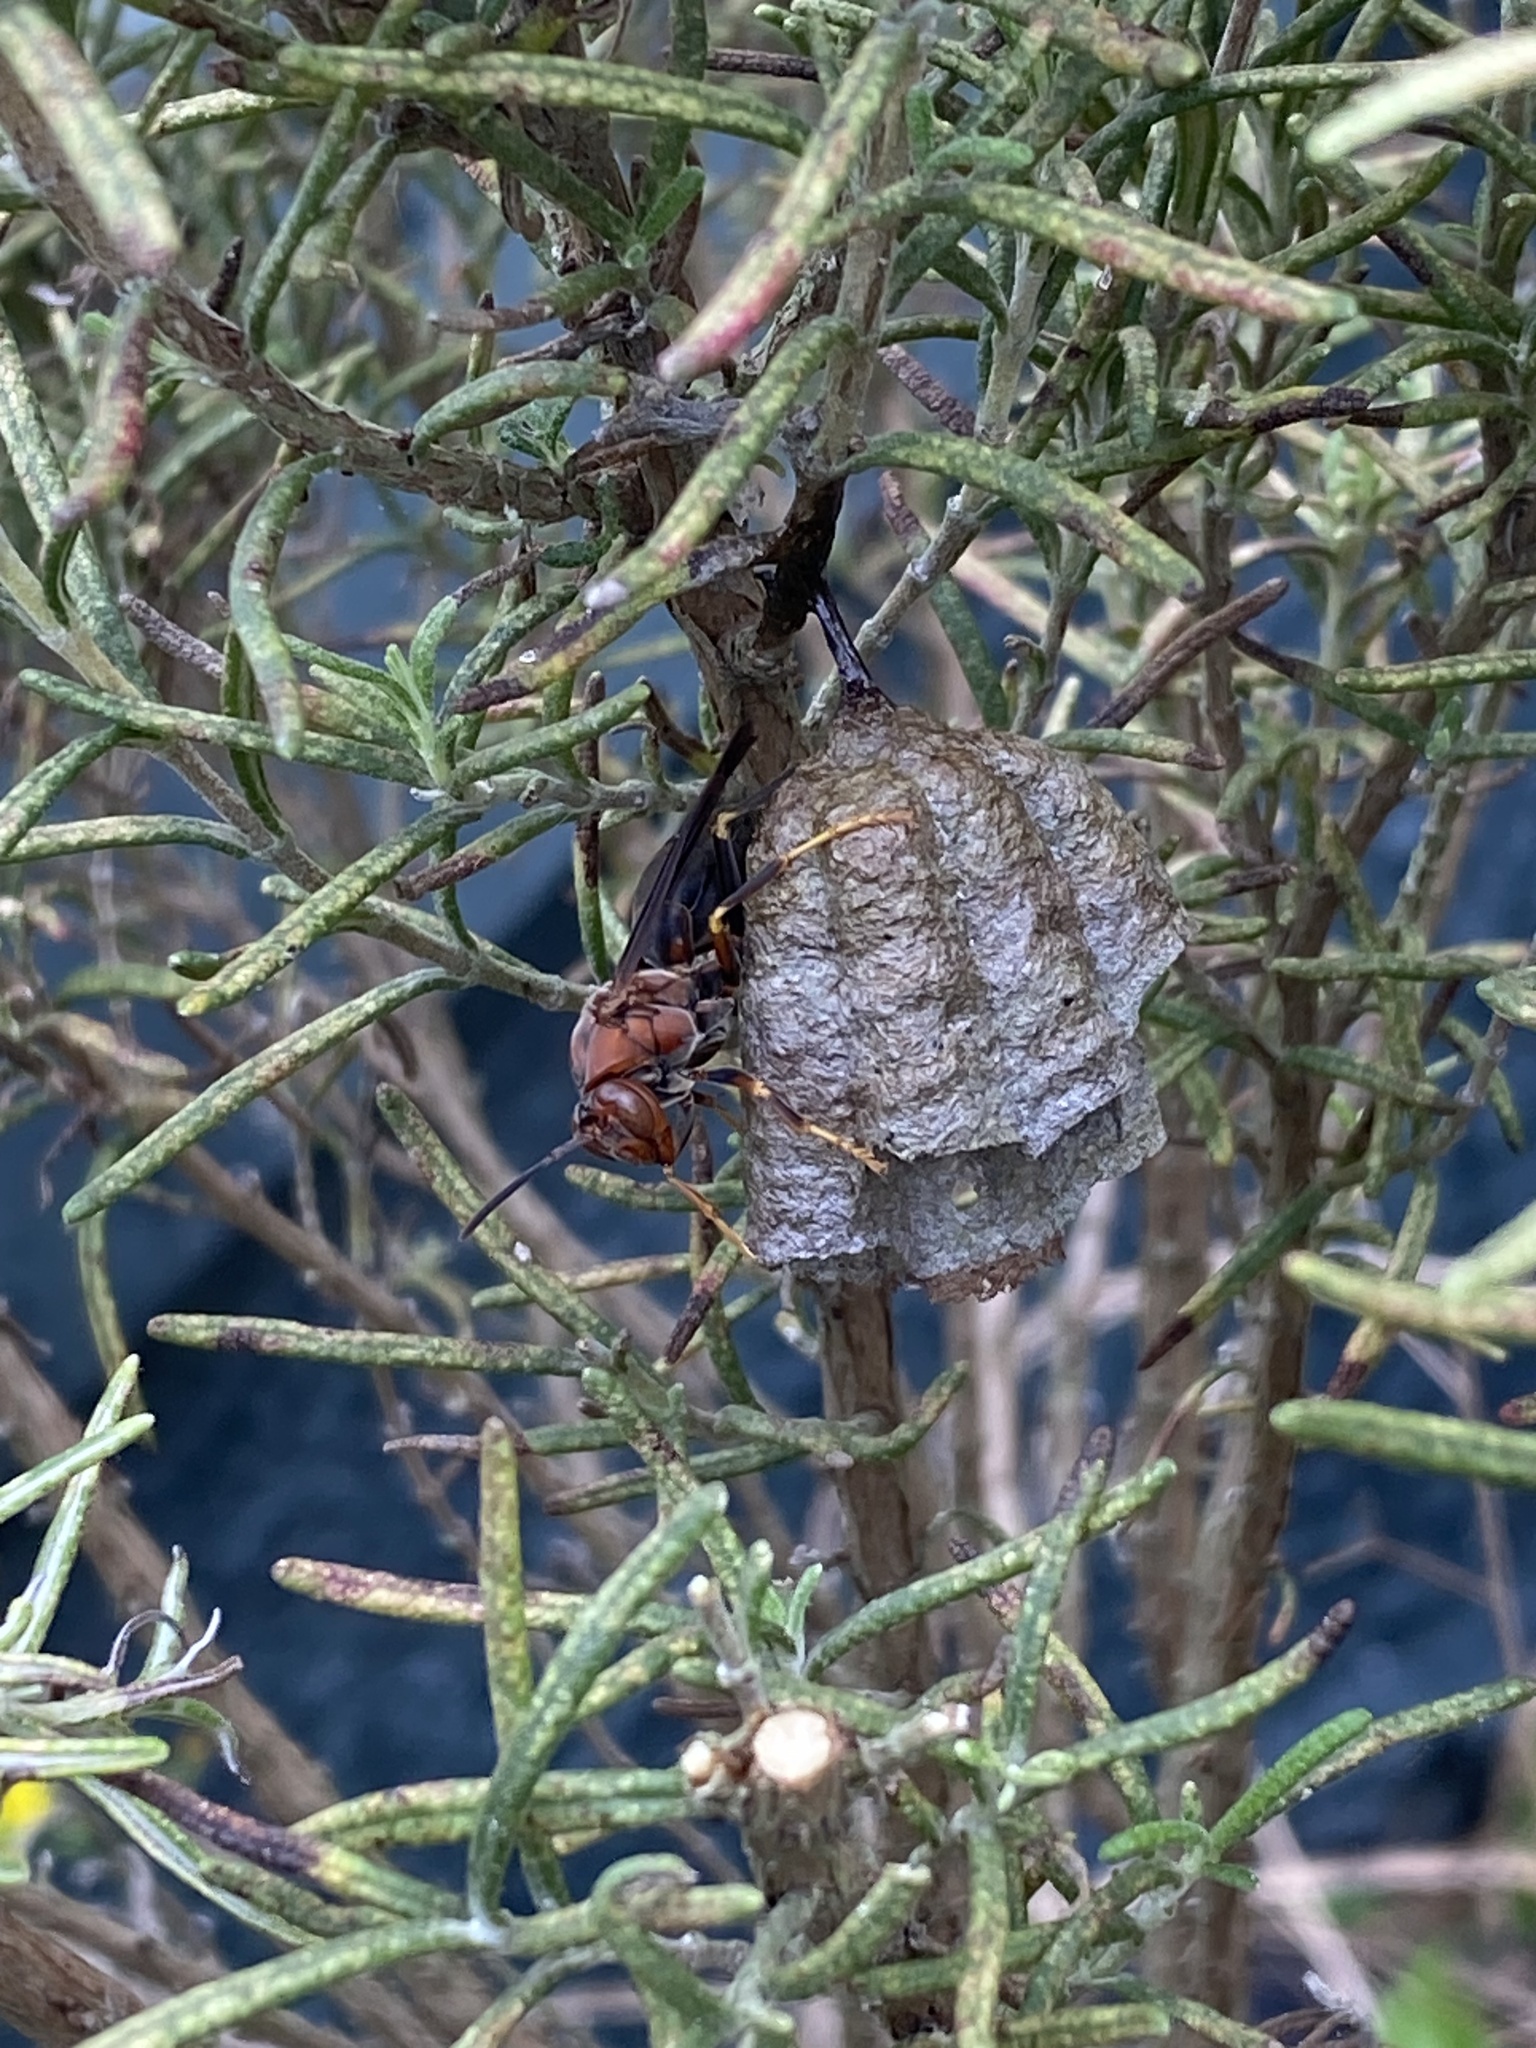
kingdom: Animalia
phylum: Arthropoda
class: Insecta
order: Hymenoptera
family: Eumenidae
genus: Polistes
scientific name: Polistes metricus
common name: Metric paper wasp
